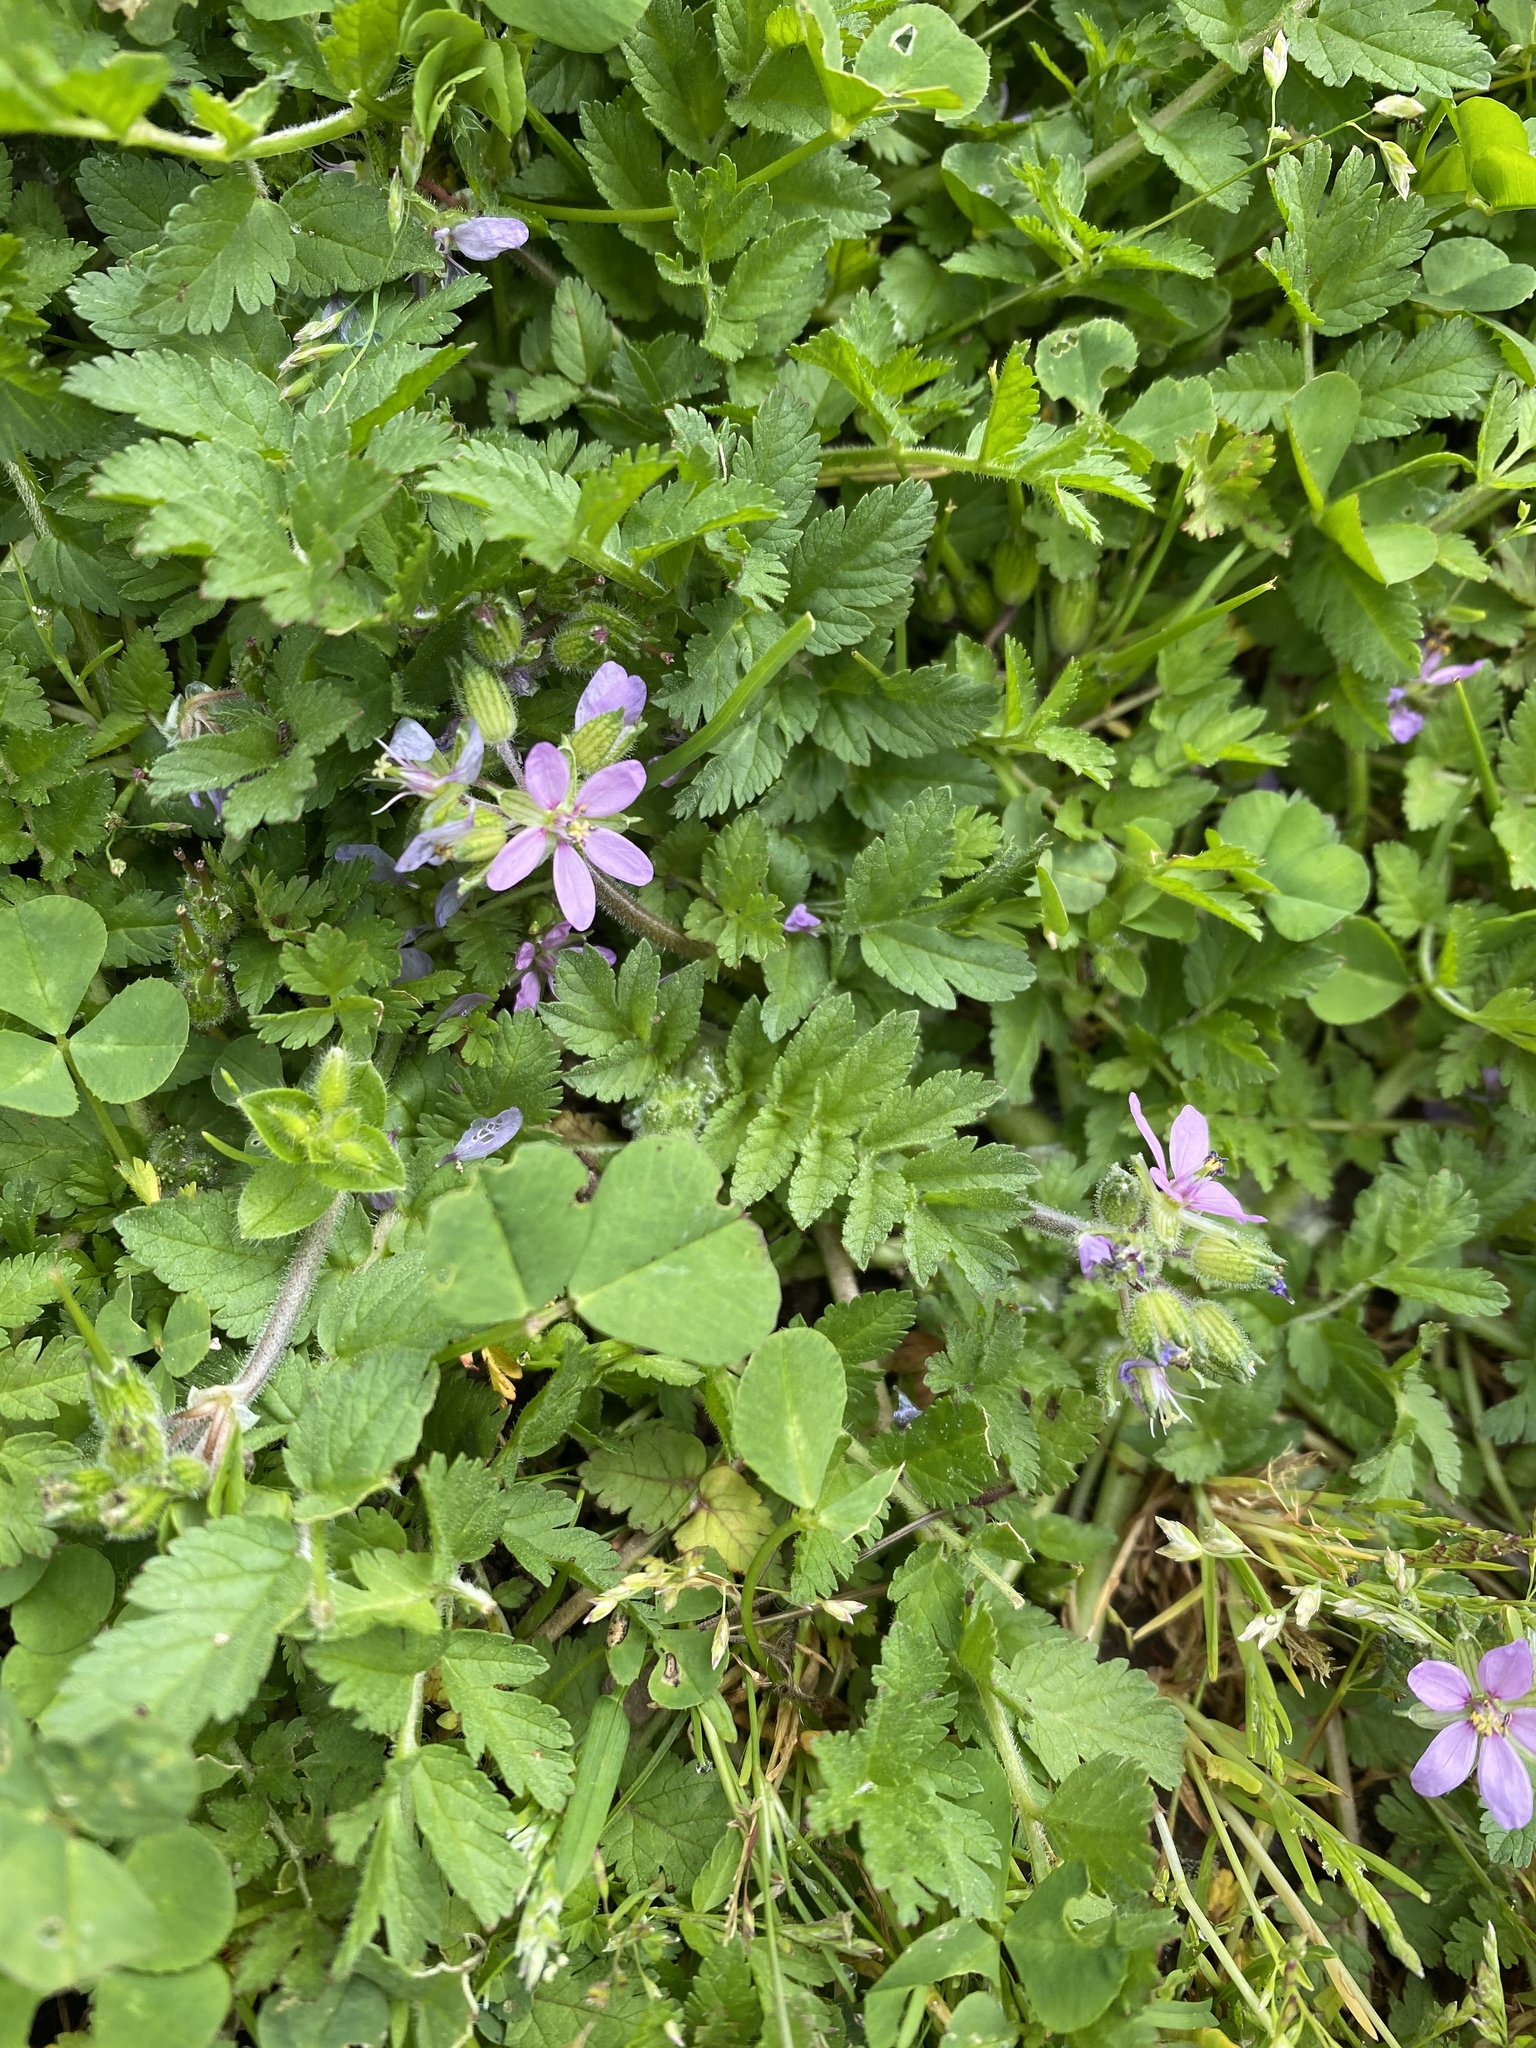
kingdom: Plantae
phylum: Tracheophyta
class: Magnoliopsida
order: Geraniales
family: Geraniaceae
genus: Erodium
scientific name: Erodium moschatum
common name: Musk stork's-bill
